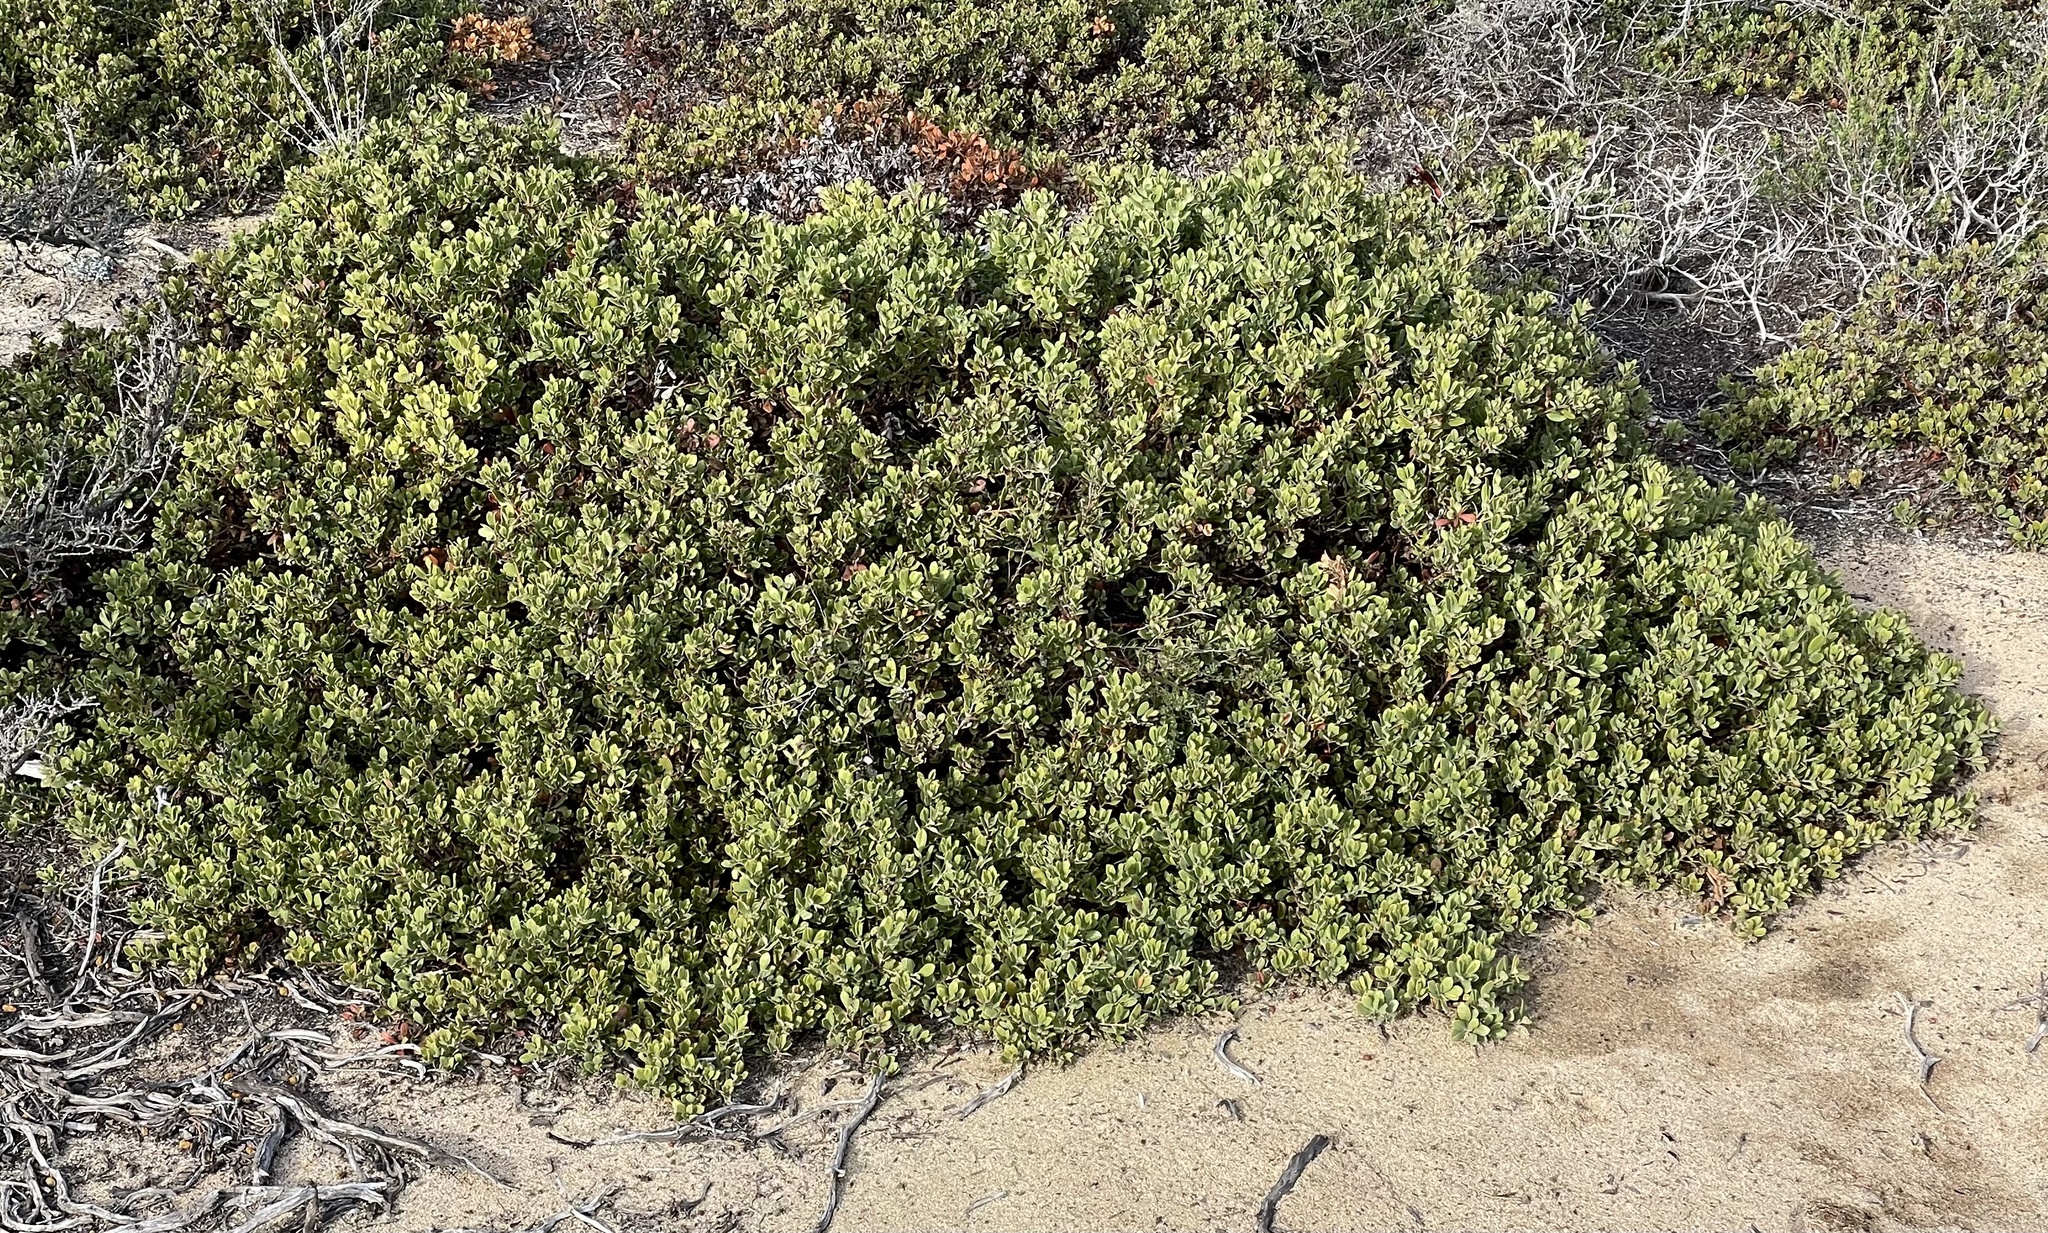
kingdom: Plantae
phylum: Tracheophyta
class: Magnoliopsida
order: Ericales
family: Ericaceae
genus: Arctostaphylos
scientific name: Arctostaphylos pumila
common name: Sandmat manzanita
